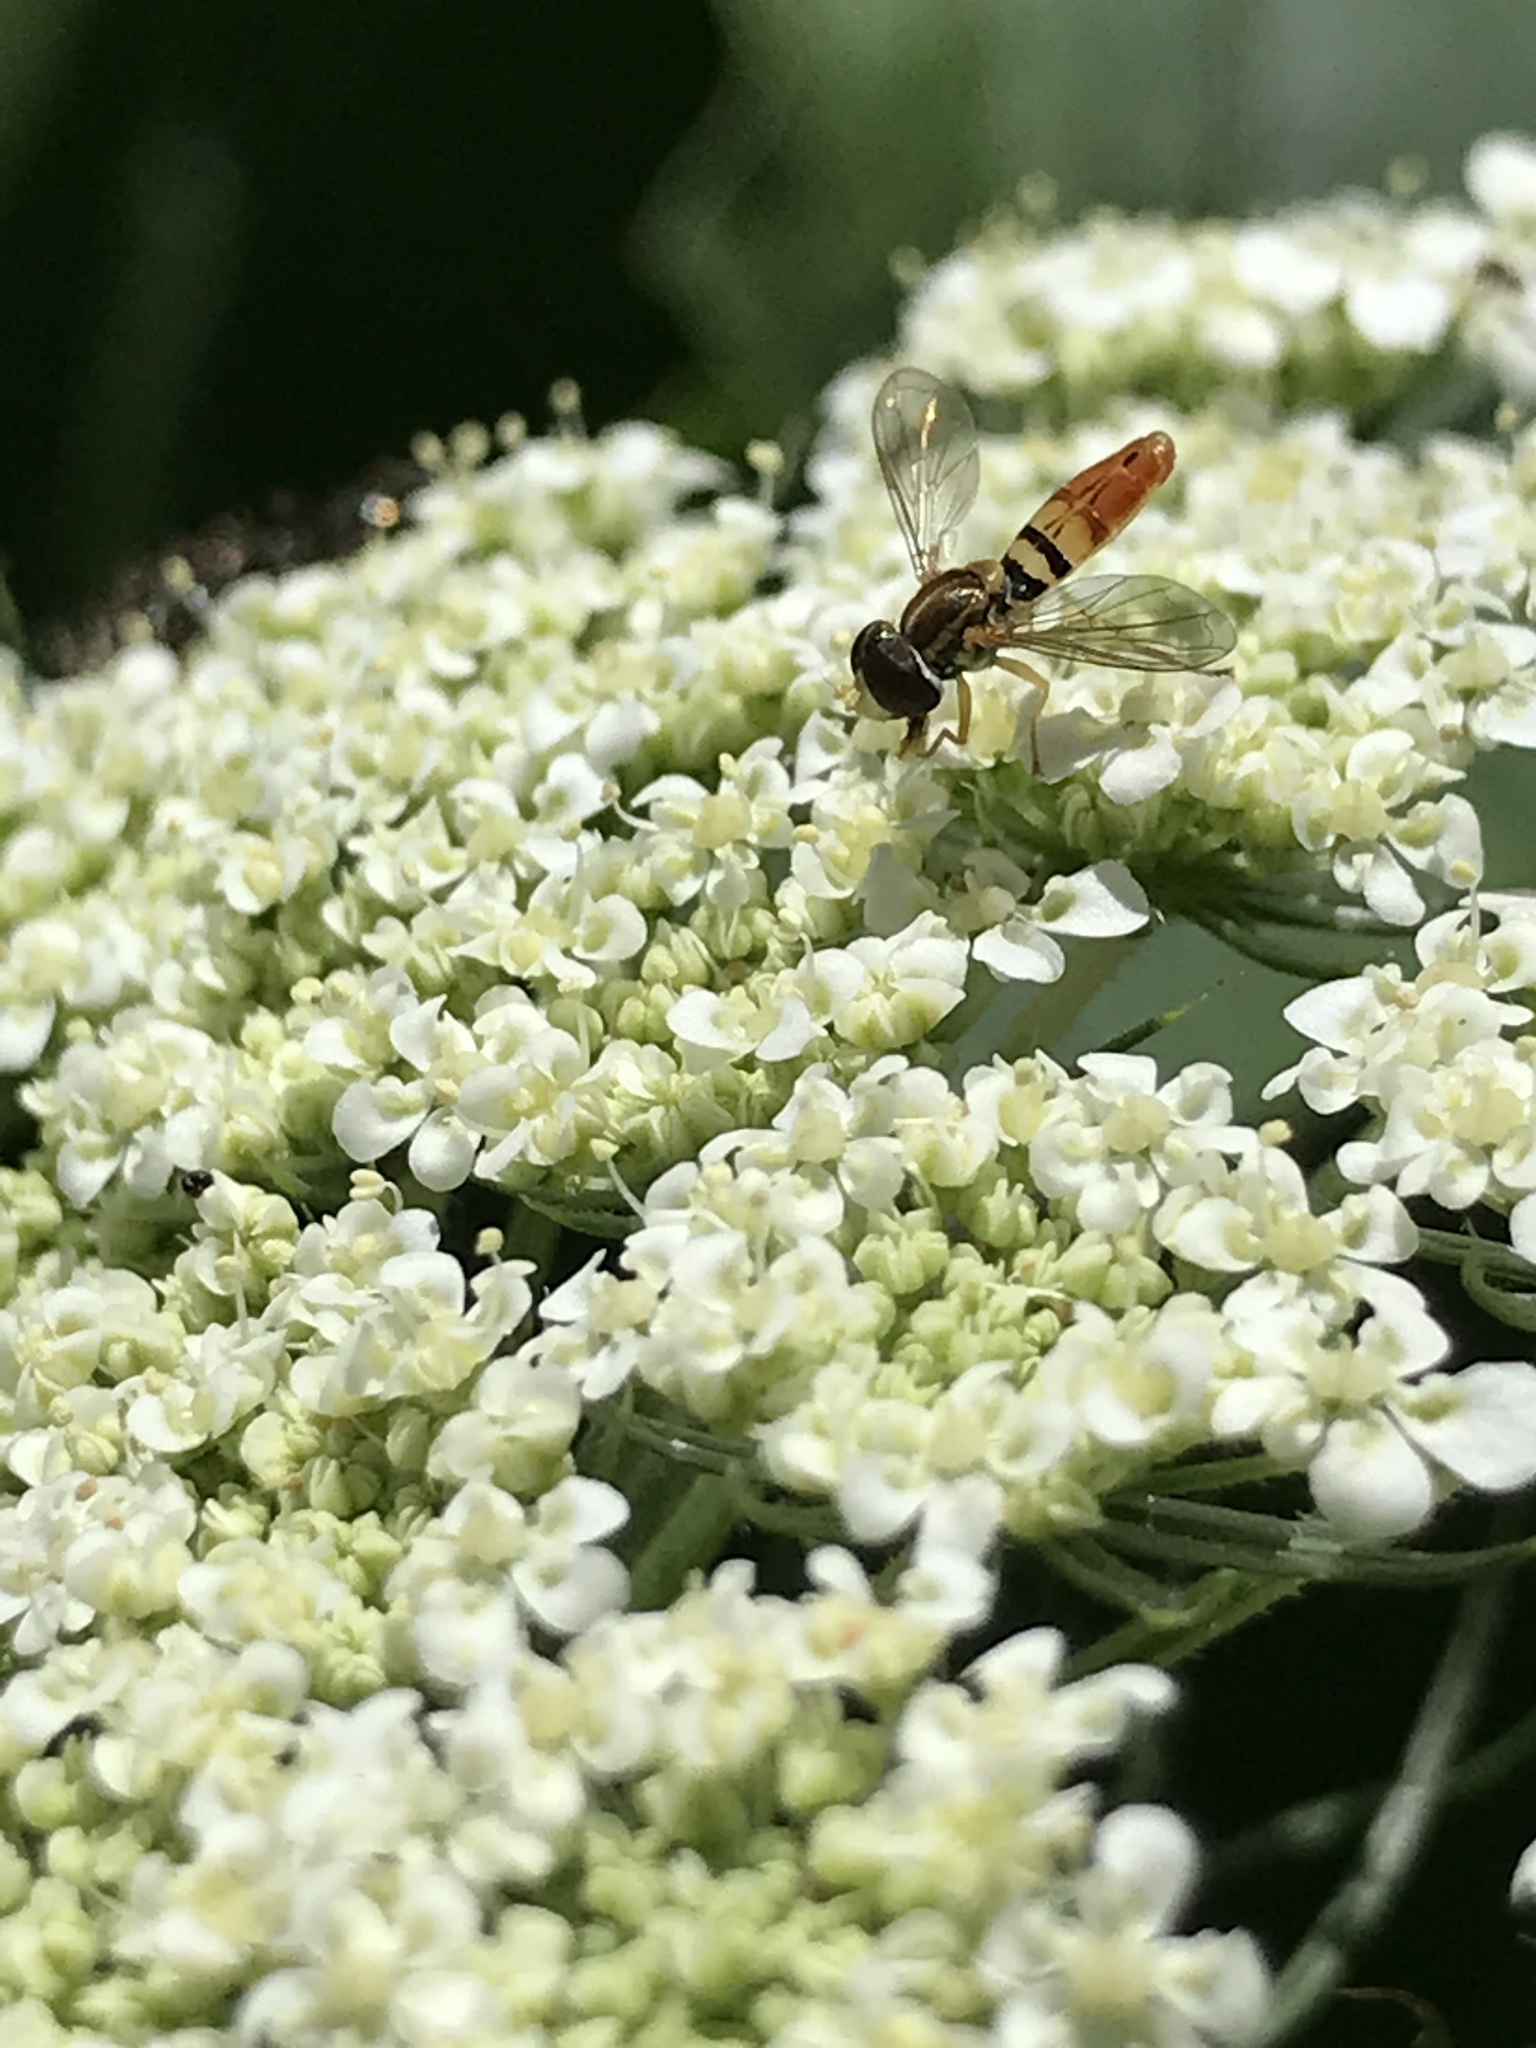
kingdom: Animalia
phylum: Arthropoda
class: Insecta
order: Diptera
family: Syrphidae
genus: Toxomerus
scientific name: Toxomerus marginatus
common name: Syrphid fly
